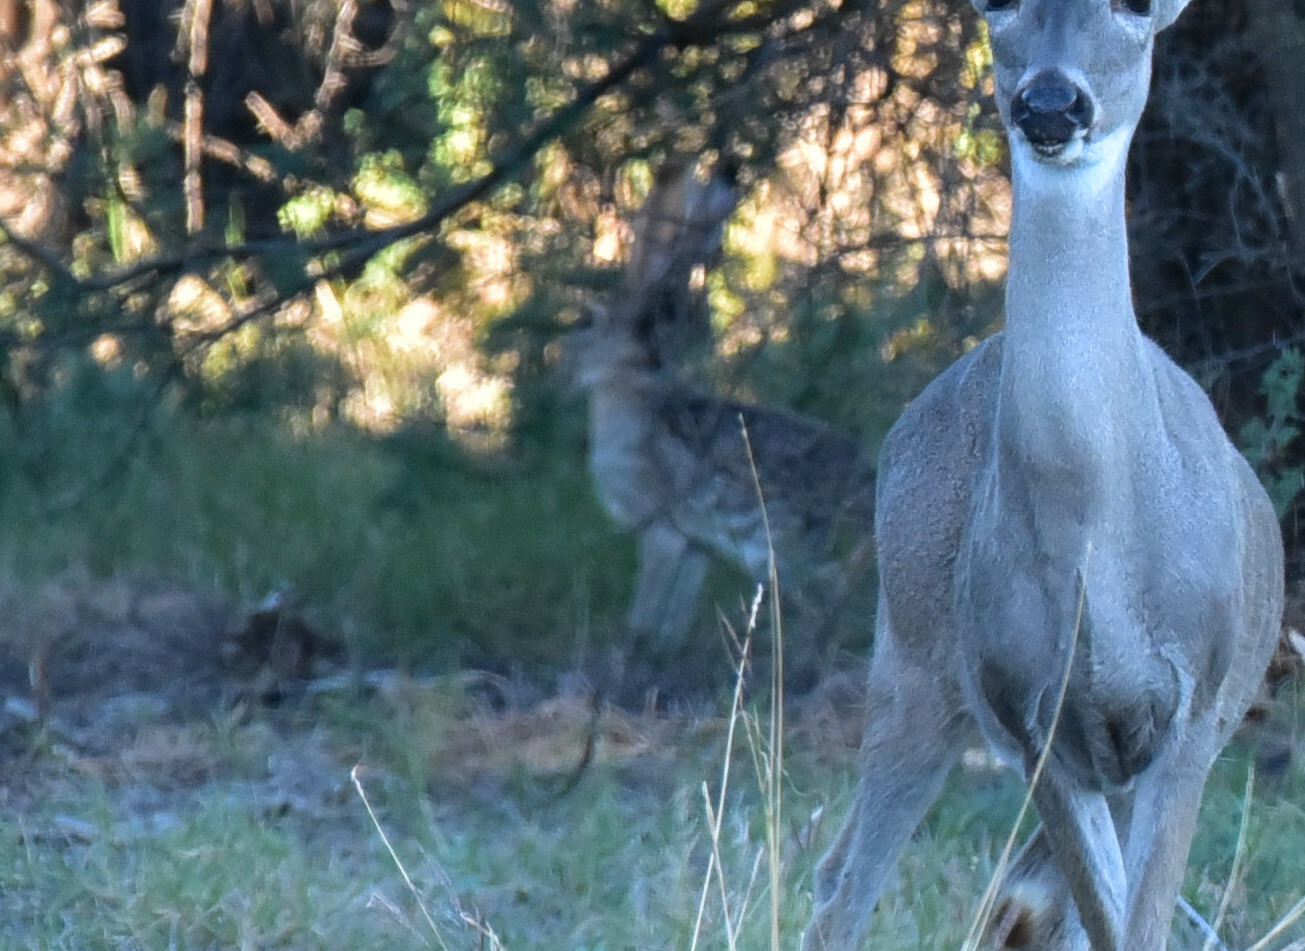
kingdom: Animalia
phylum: Chordata
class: Mammalia
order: Lagomorpha
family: Leporidae
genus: Lepus
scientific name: Lepus californicus
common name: Black-tailed jackrabbit
